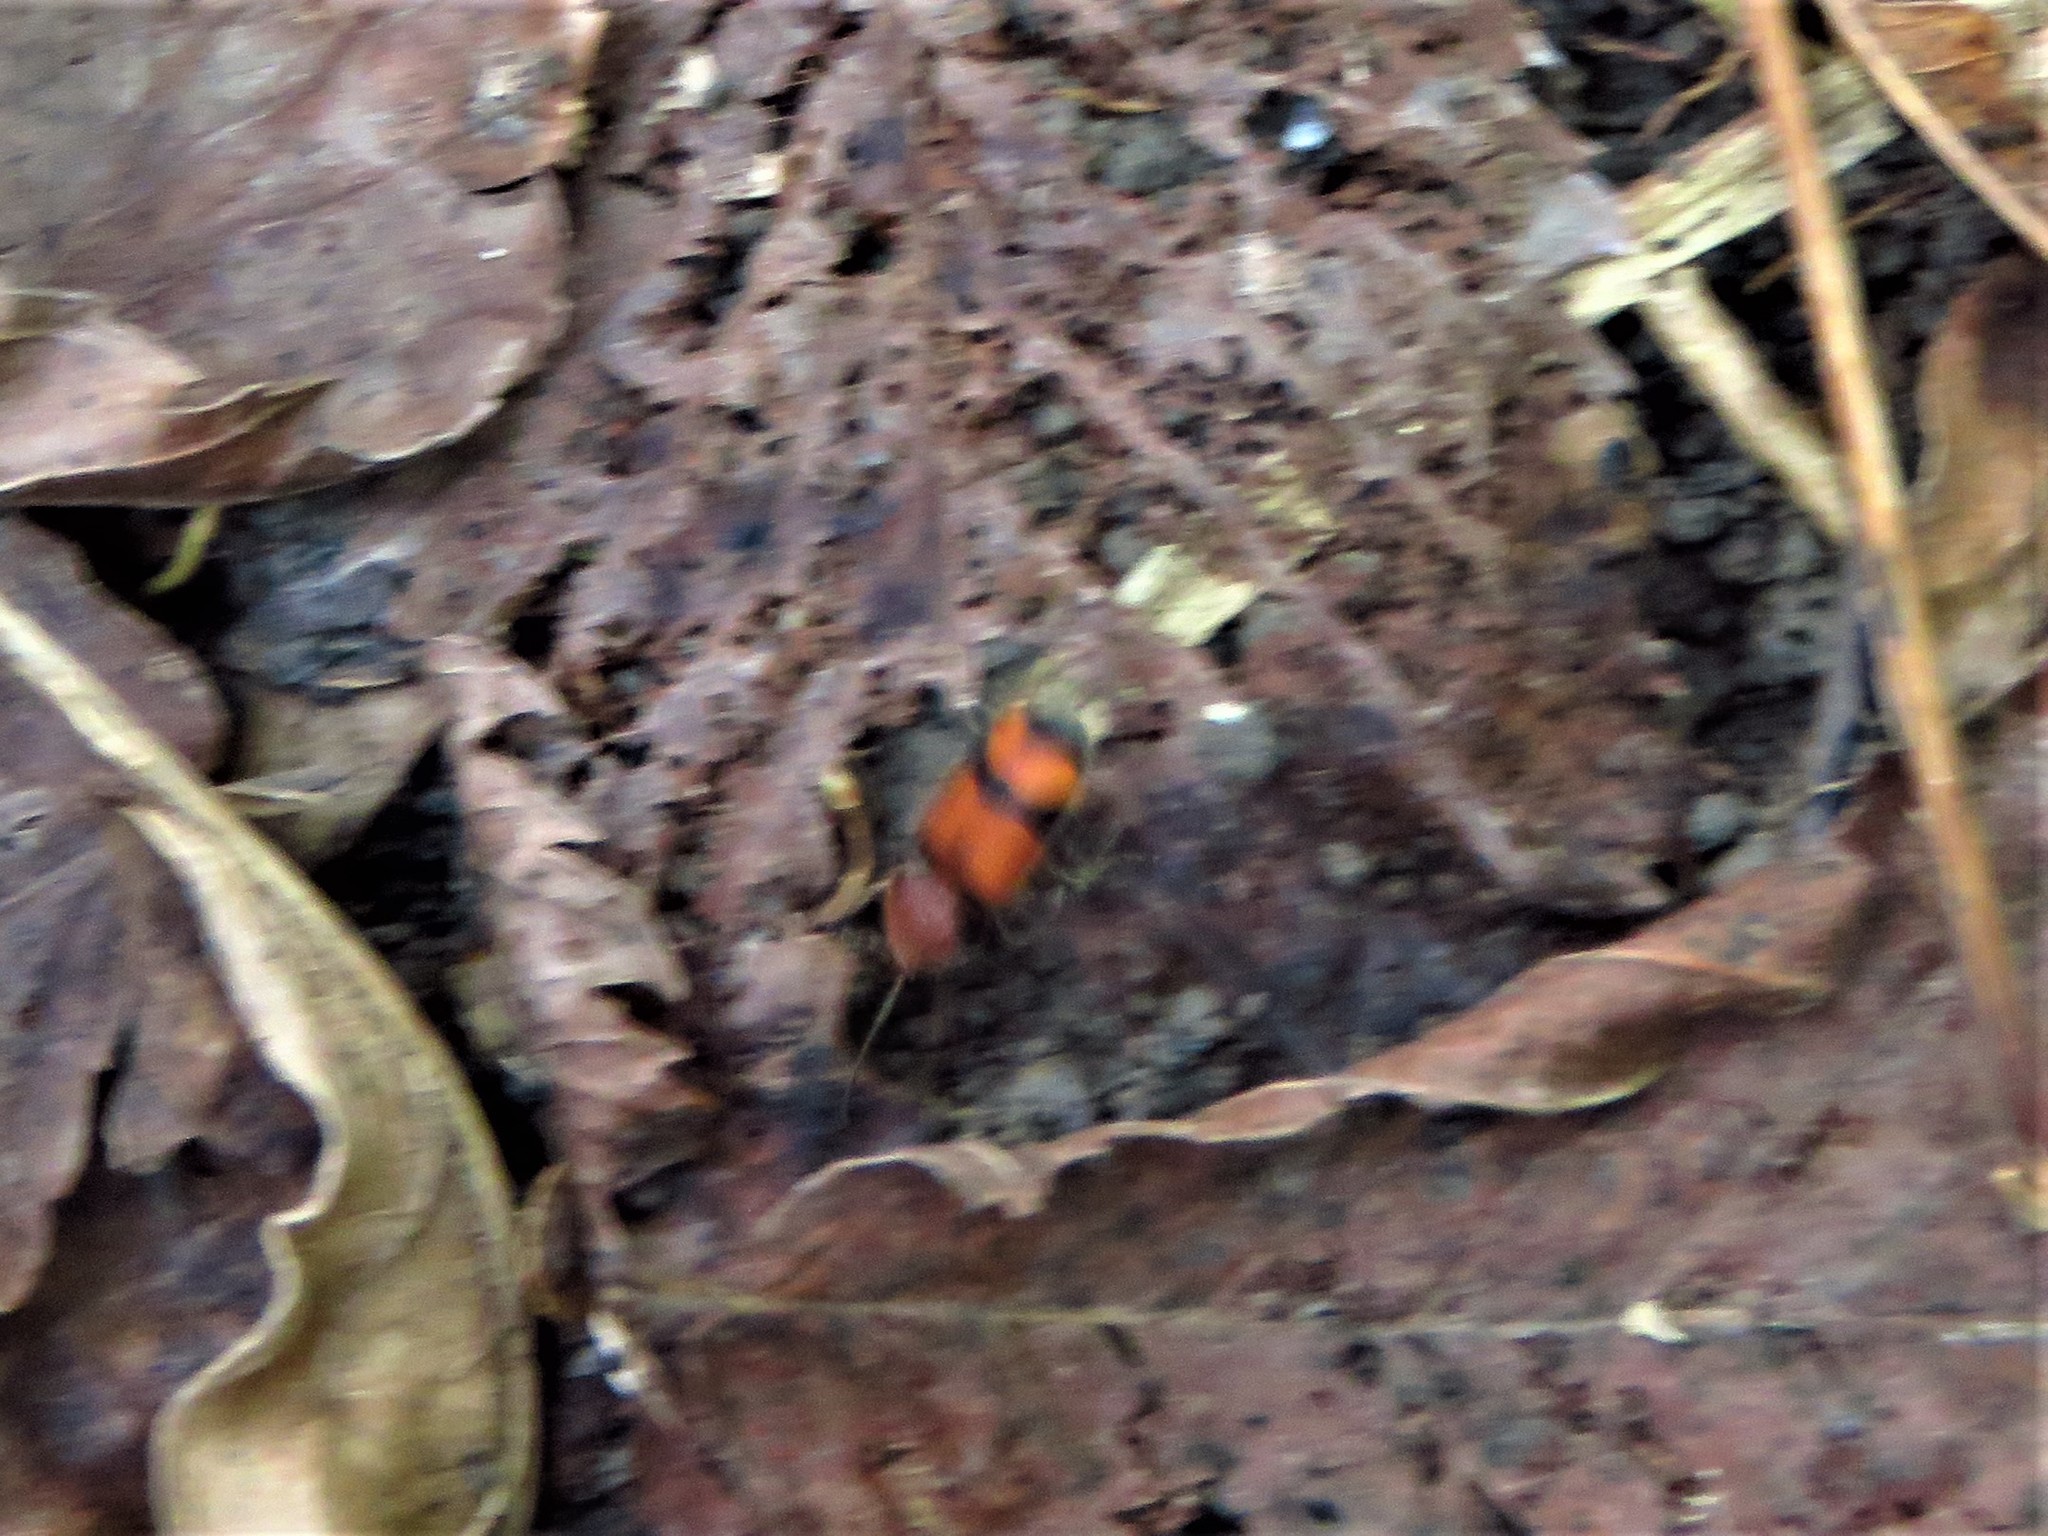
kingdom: Animalia
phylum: Arthropoda
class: Insecta
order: Coleoptera
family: Carabidae
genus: Panagaeus
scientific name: Panagaeus fasciatus
